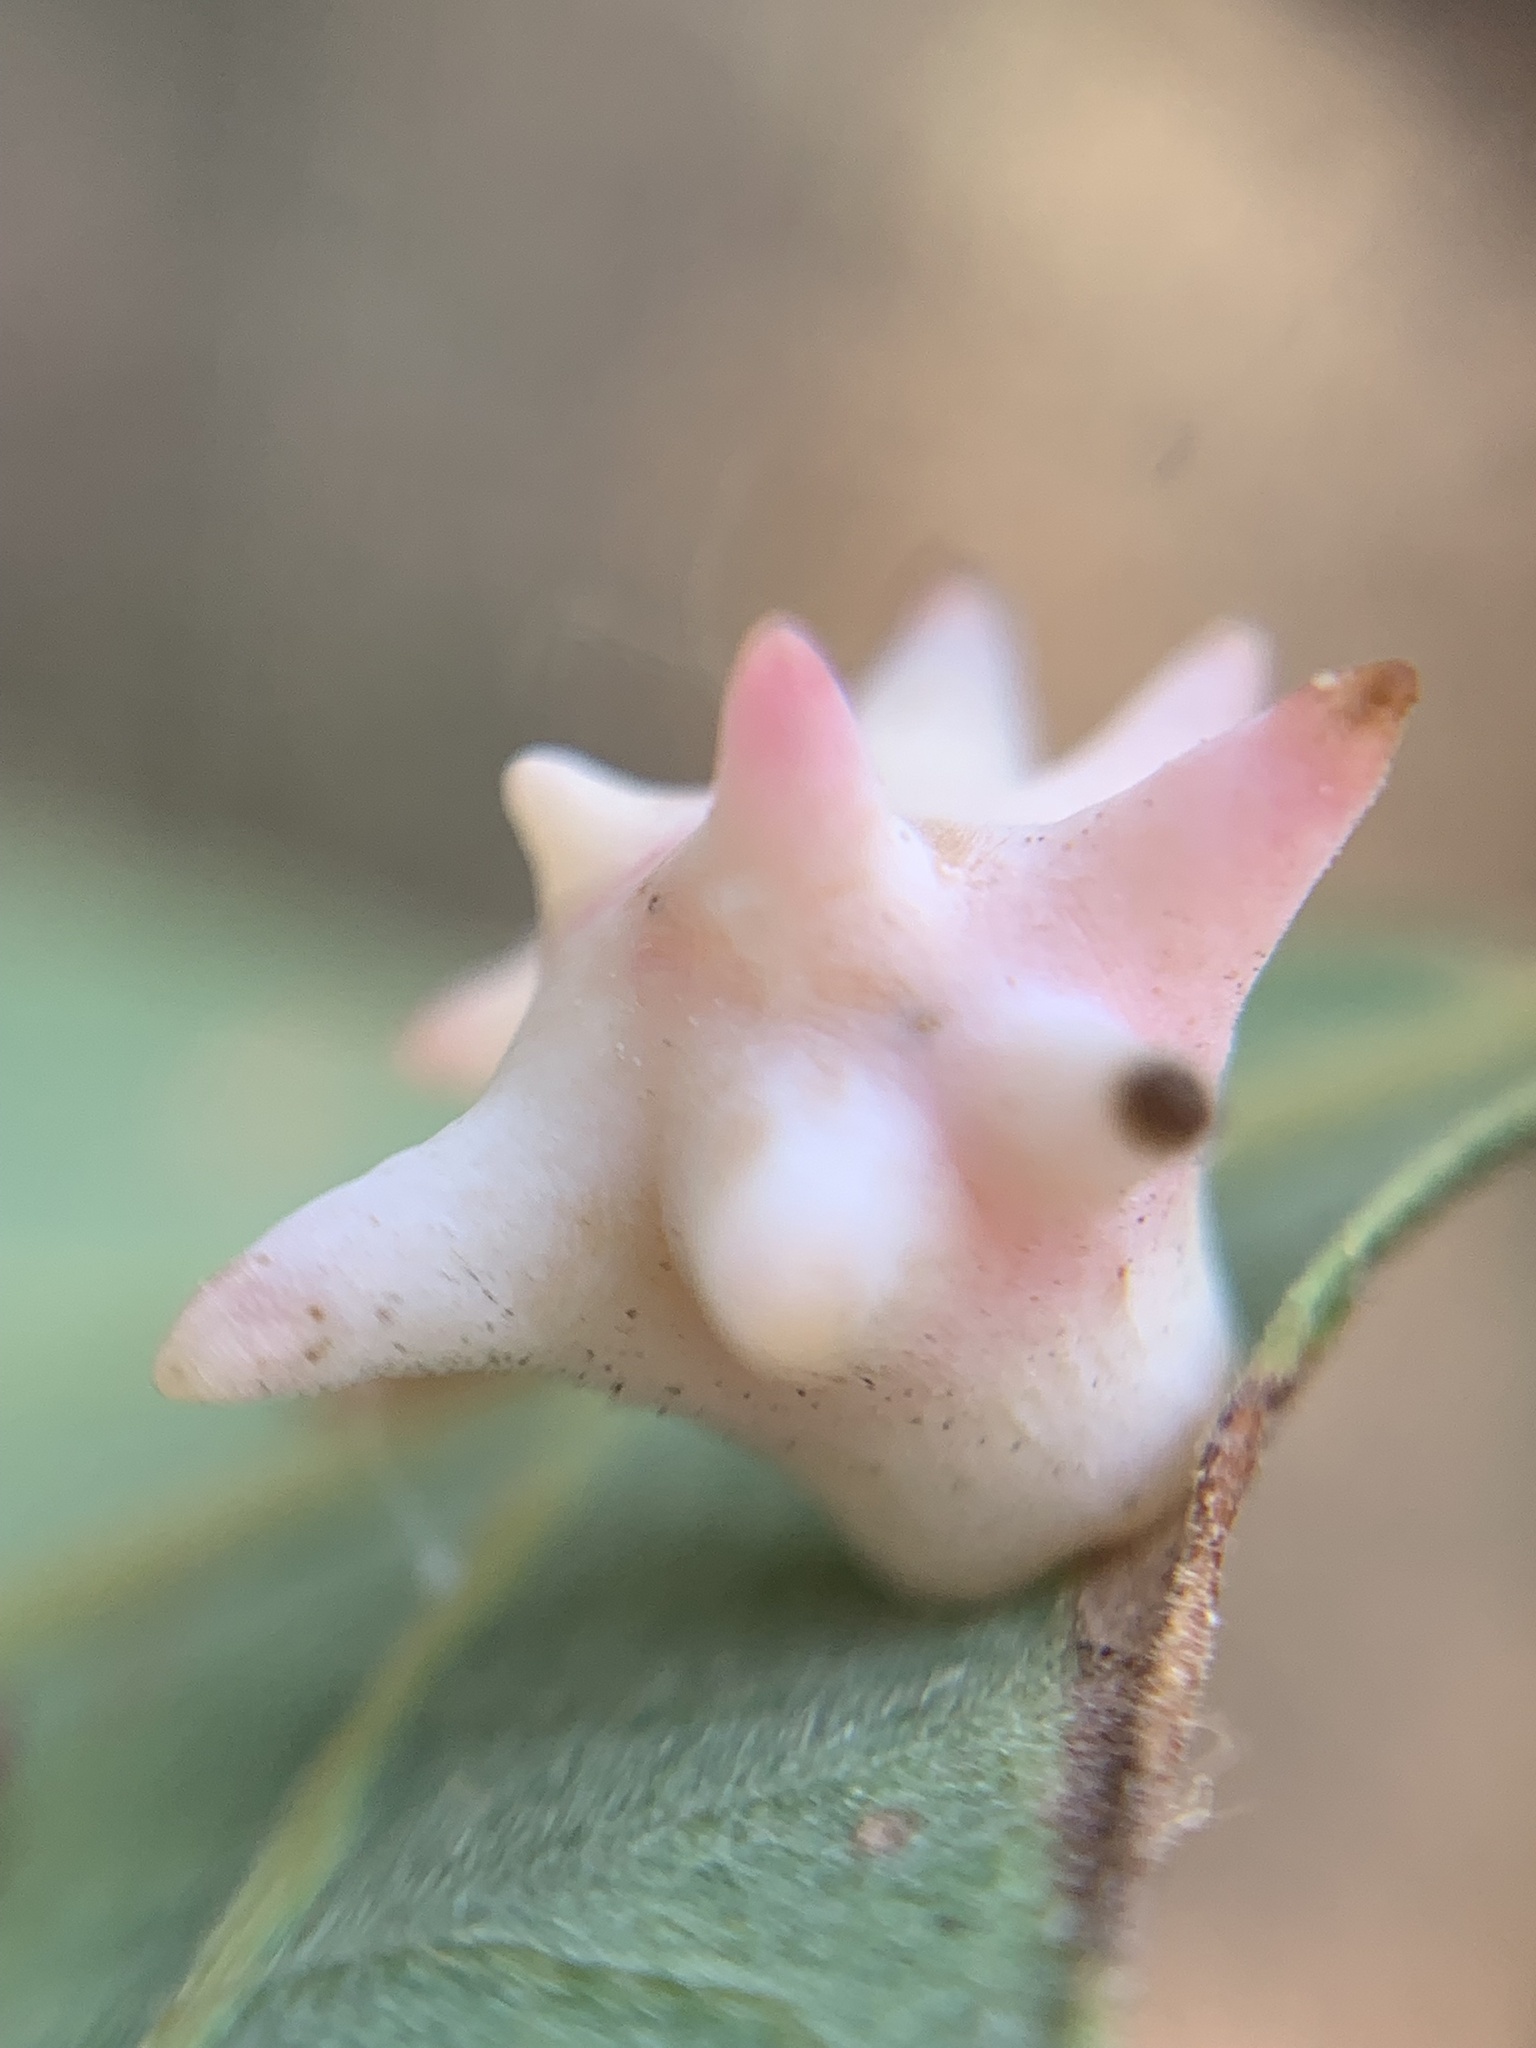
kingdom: Animalia
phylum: Arthropoda
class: Insecta
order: Hymenoptera
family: Cynipidae
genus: Cynips
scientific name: Cynips douglasi
